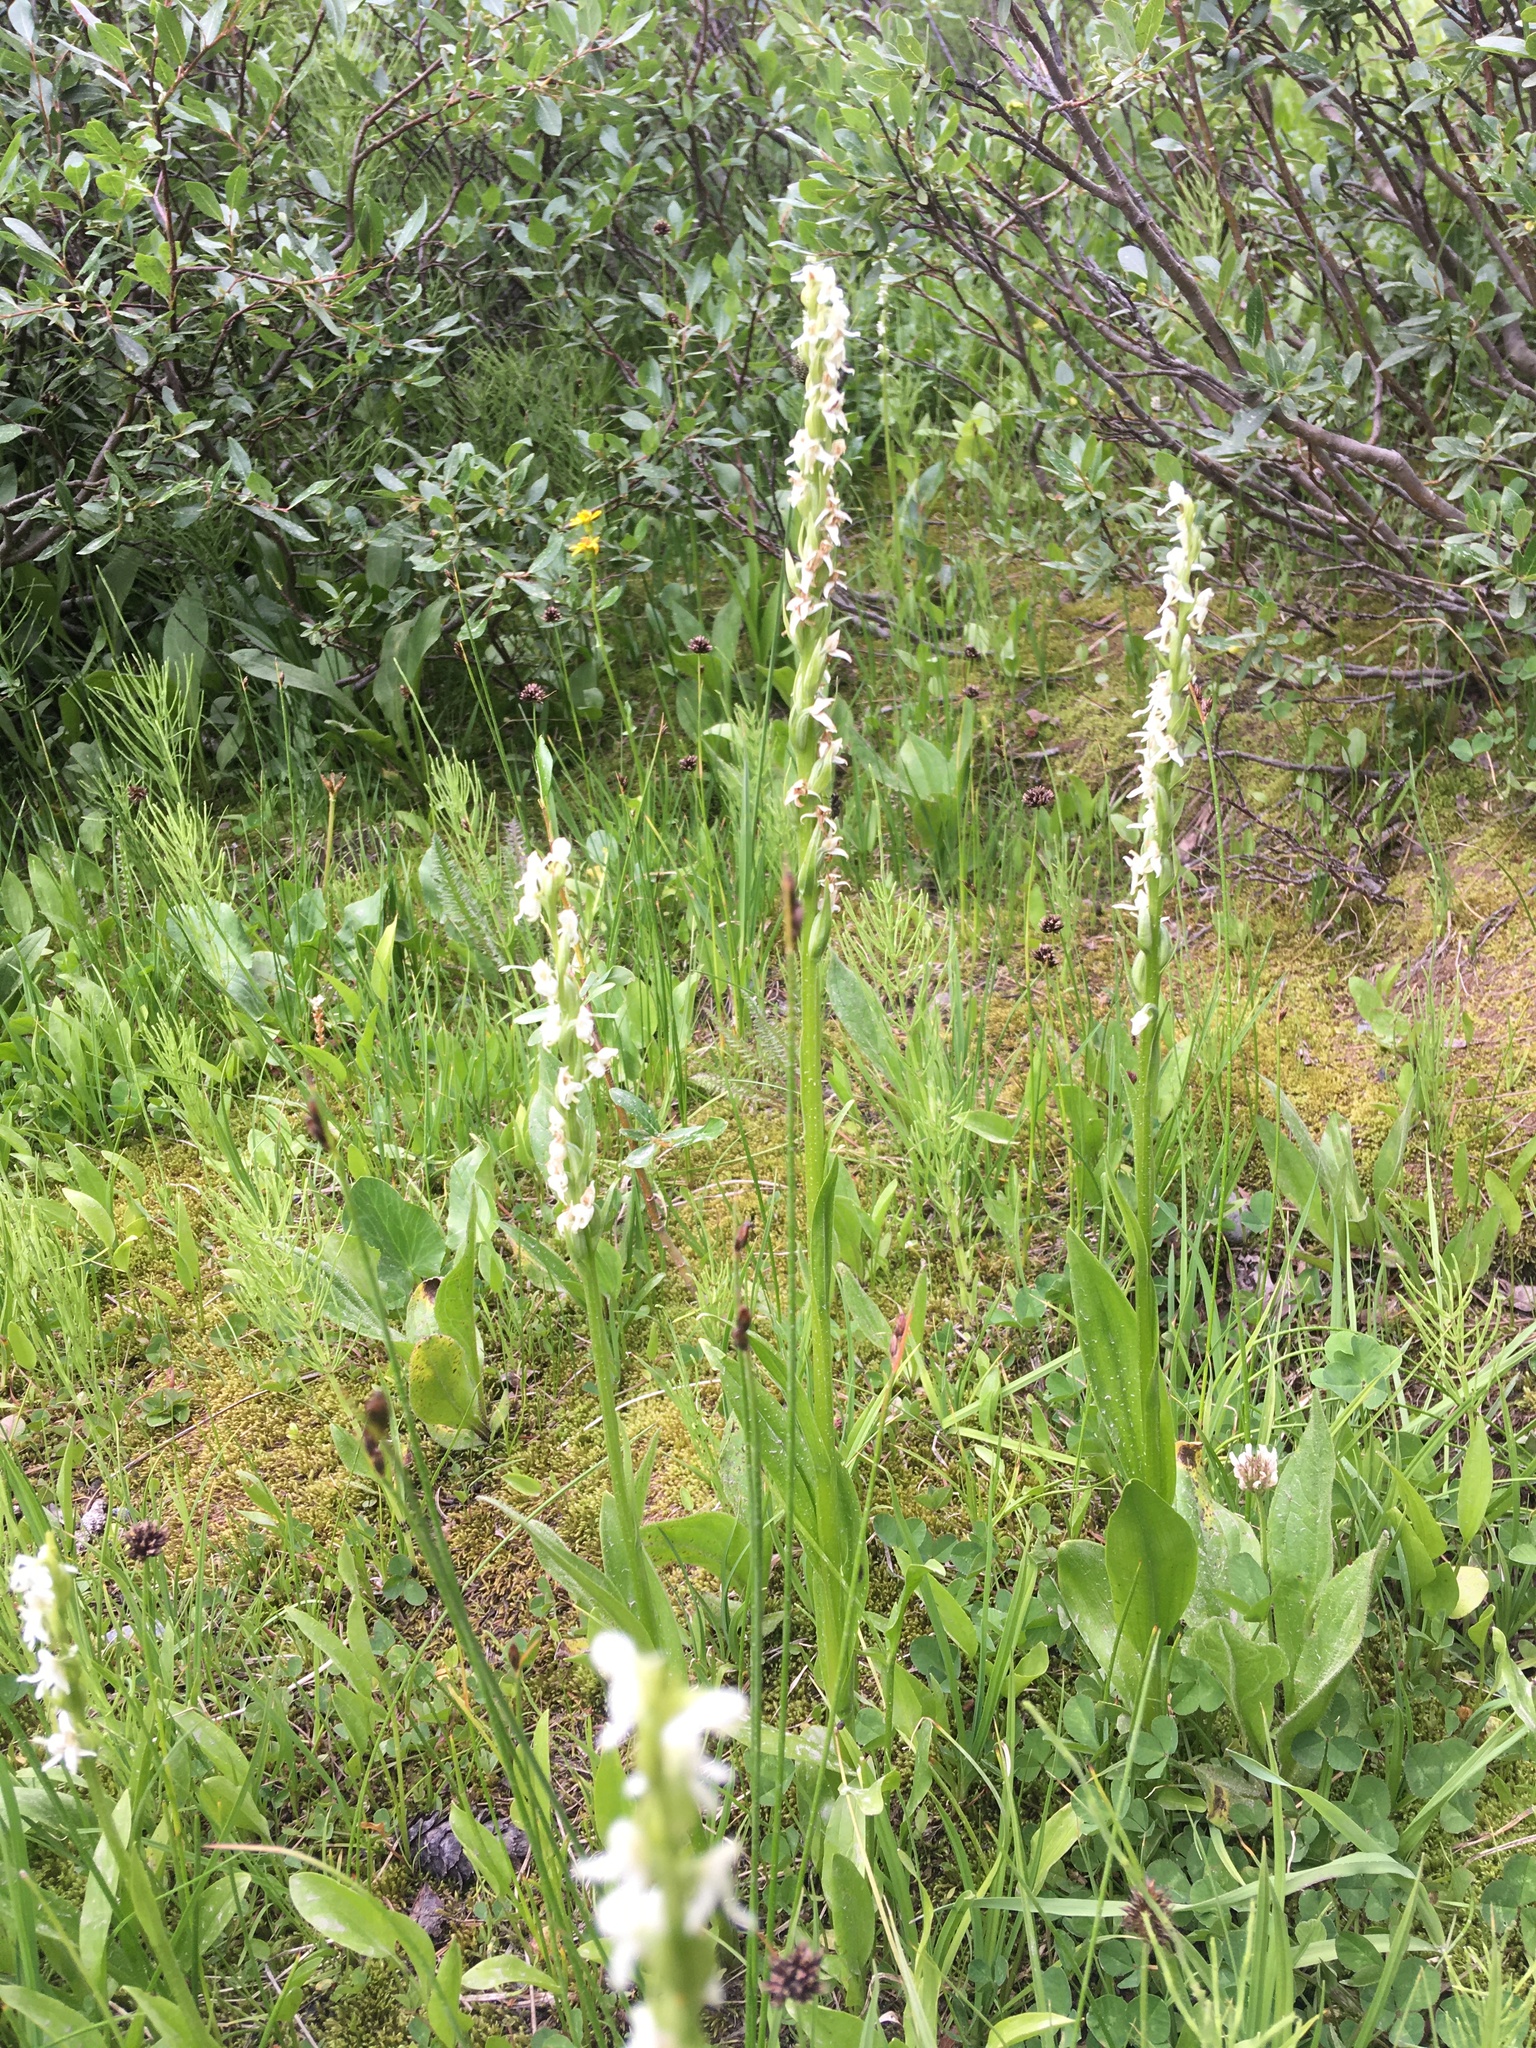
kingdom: Plantae
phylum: Tracheophyta
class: Liliopsida
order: Asparagales
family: Orchidaceae
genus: Platanthera
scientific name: Platanthera dilatata
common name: Bog candles
